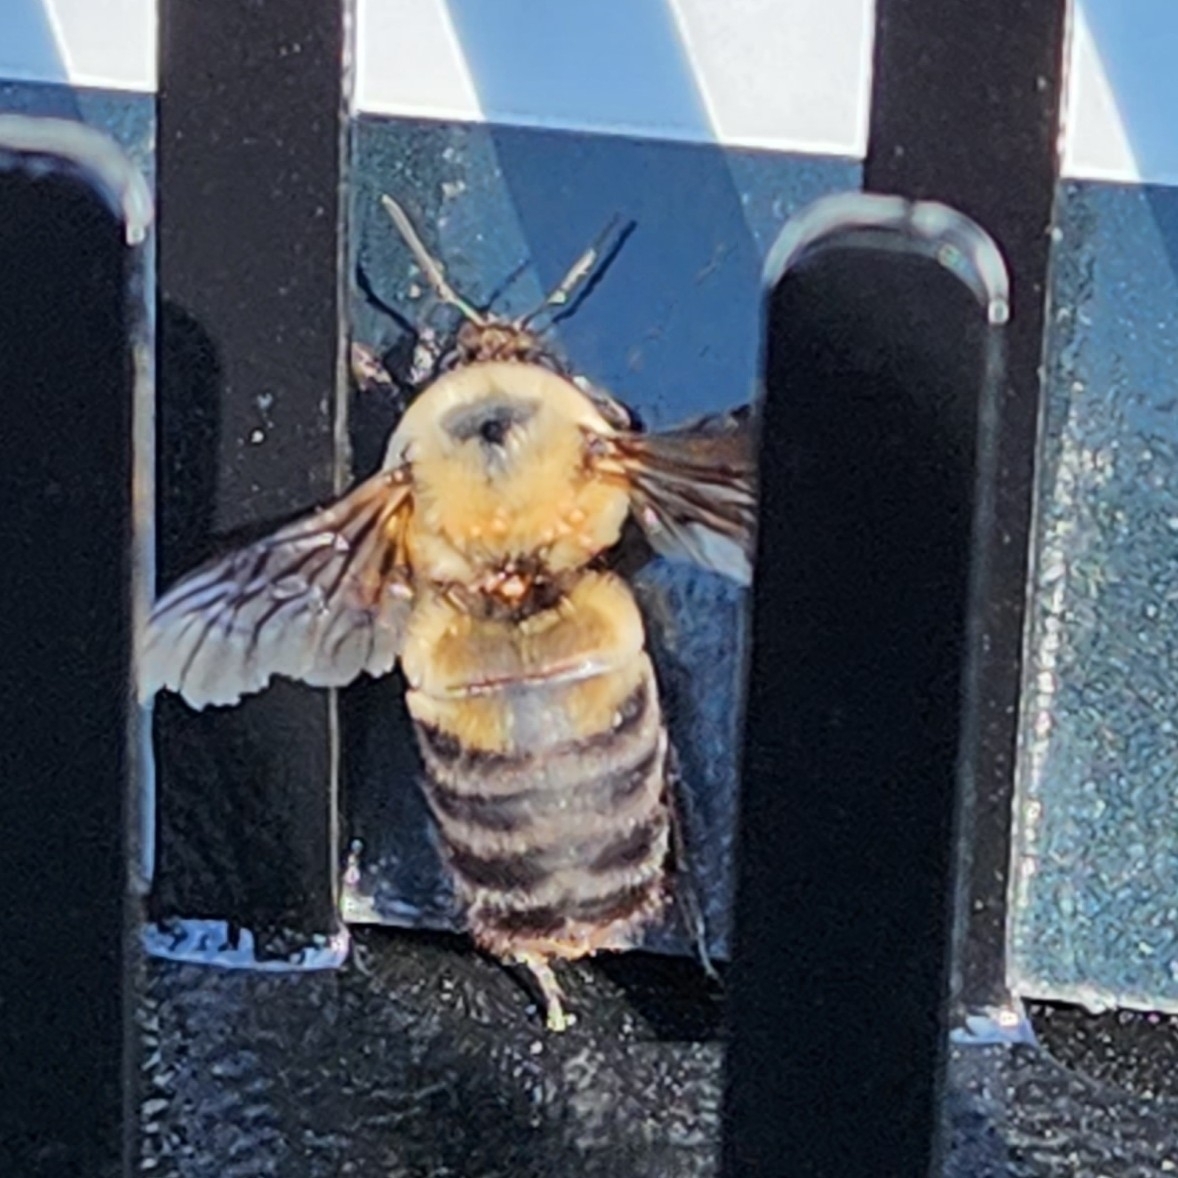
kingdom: Animalia
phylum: Arthropoda
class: Insecta
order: Hymenoptera
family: Apidae
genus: Bombus
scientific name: Bombus griseocollis
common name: Brown-belted bumble bee
